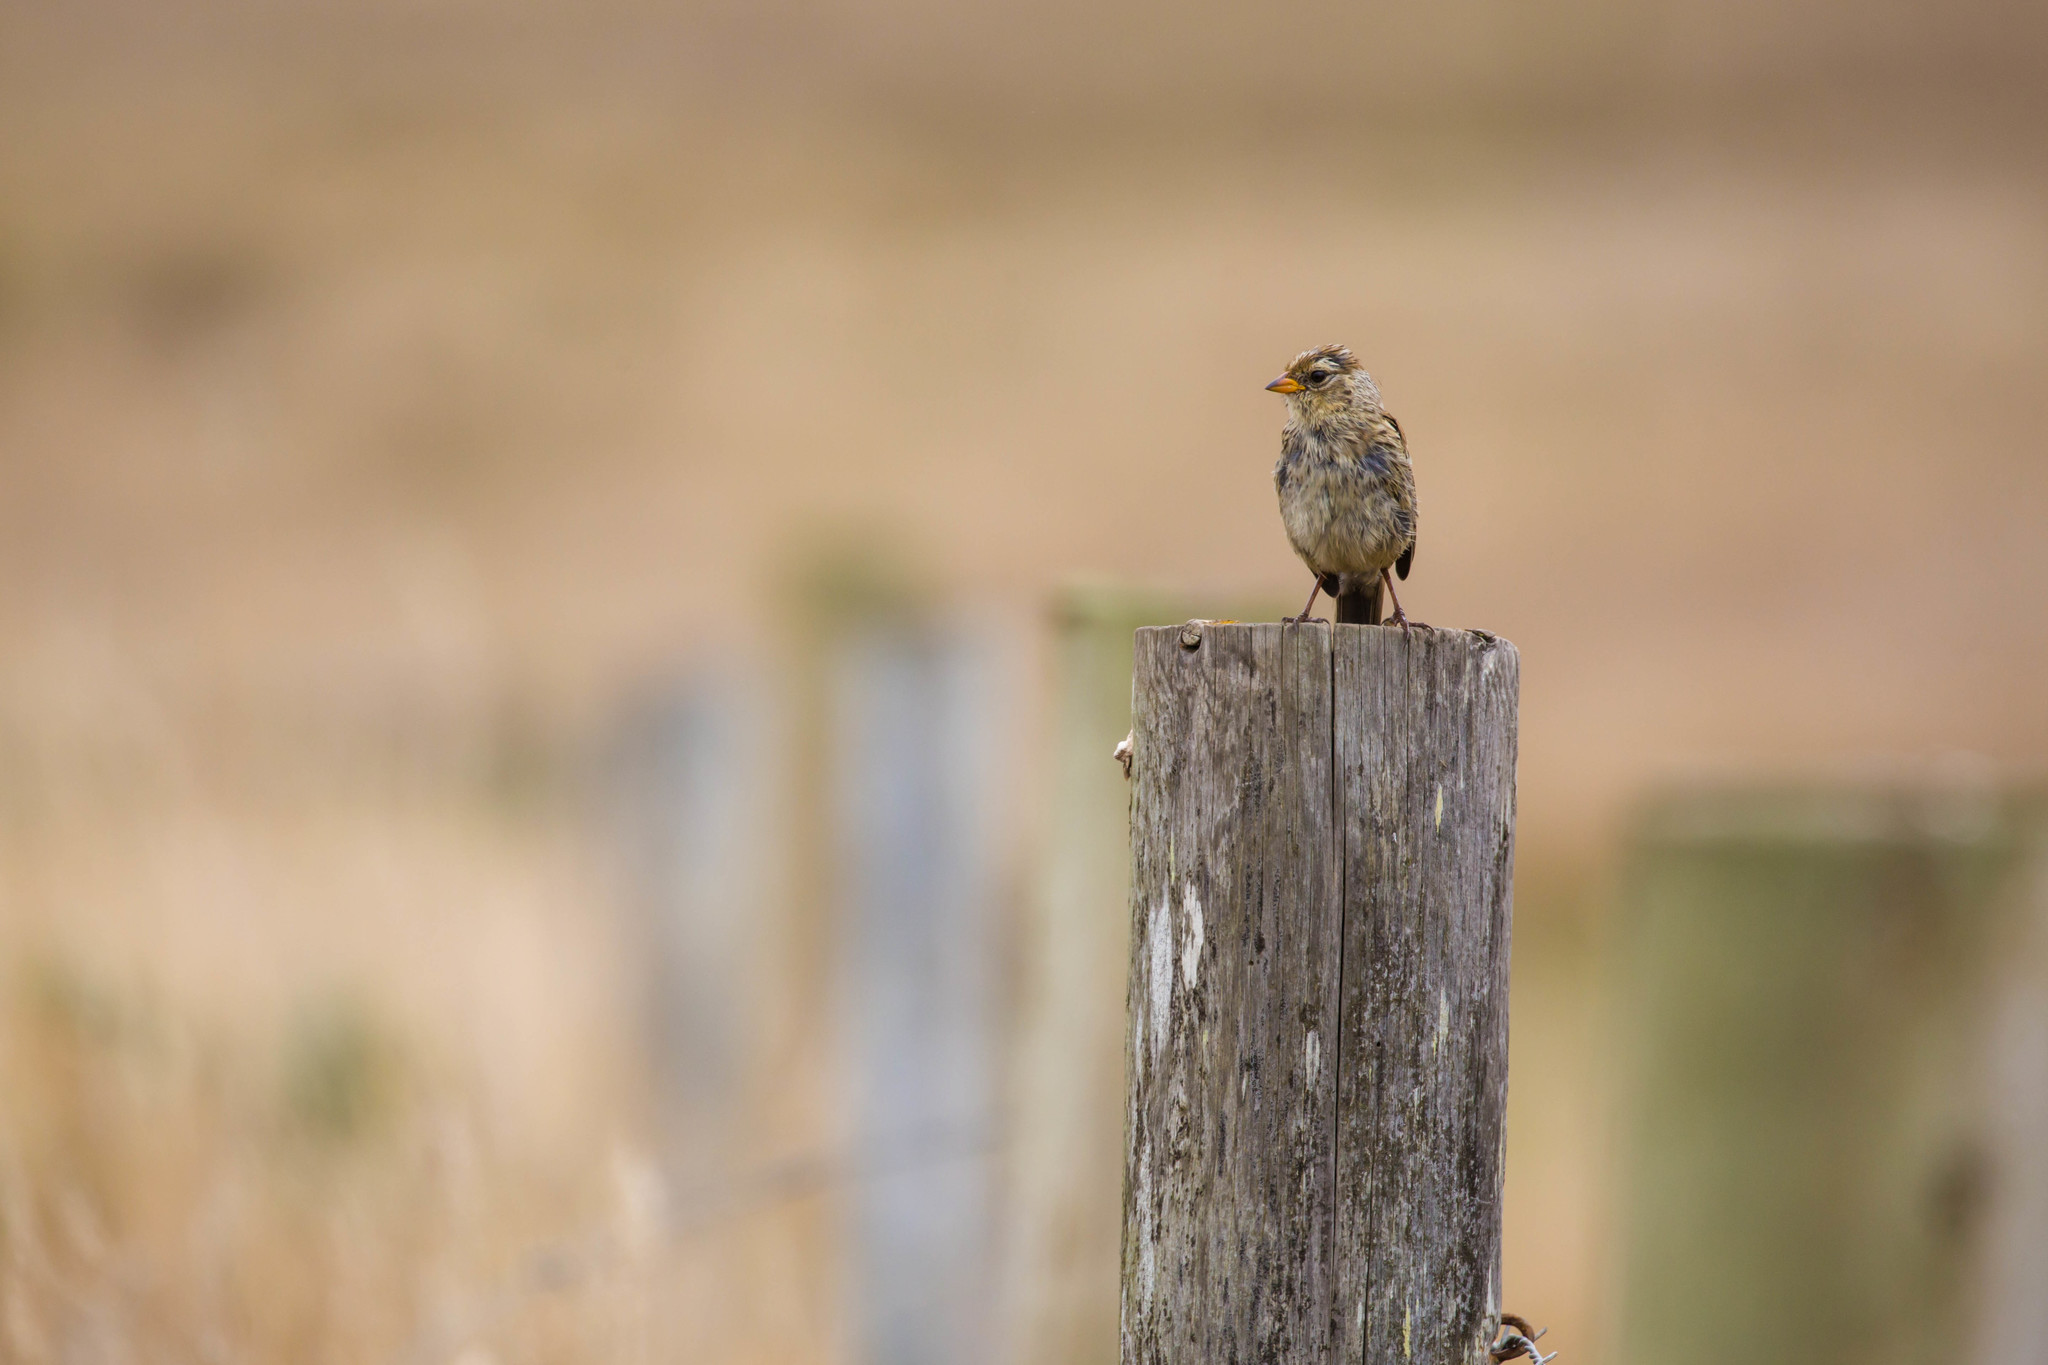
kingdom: Animalia
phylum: Chordata
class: Aves
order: Passeriformes
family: Passerellidae
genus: Zonotrichia
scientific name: Zonotrichia leucophrys
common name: White-crowned sparrow
